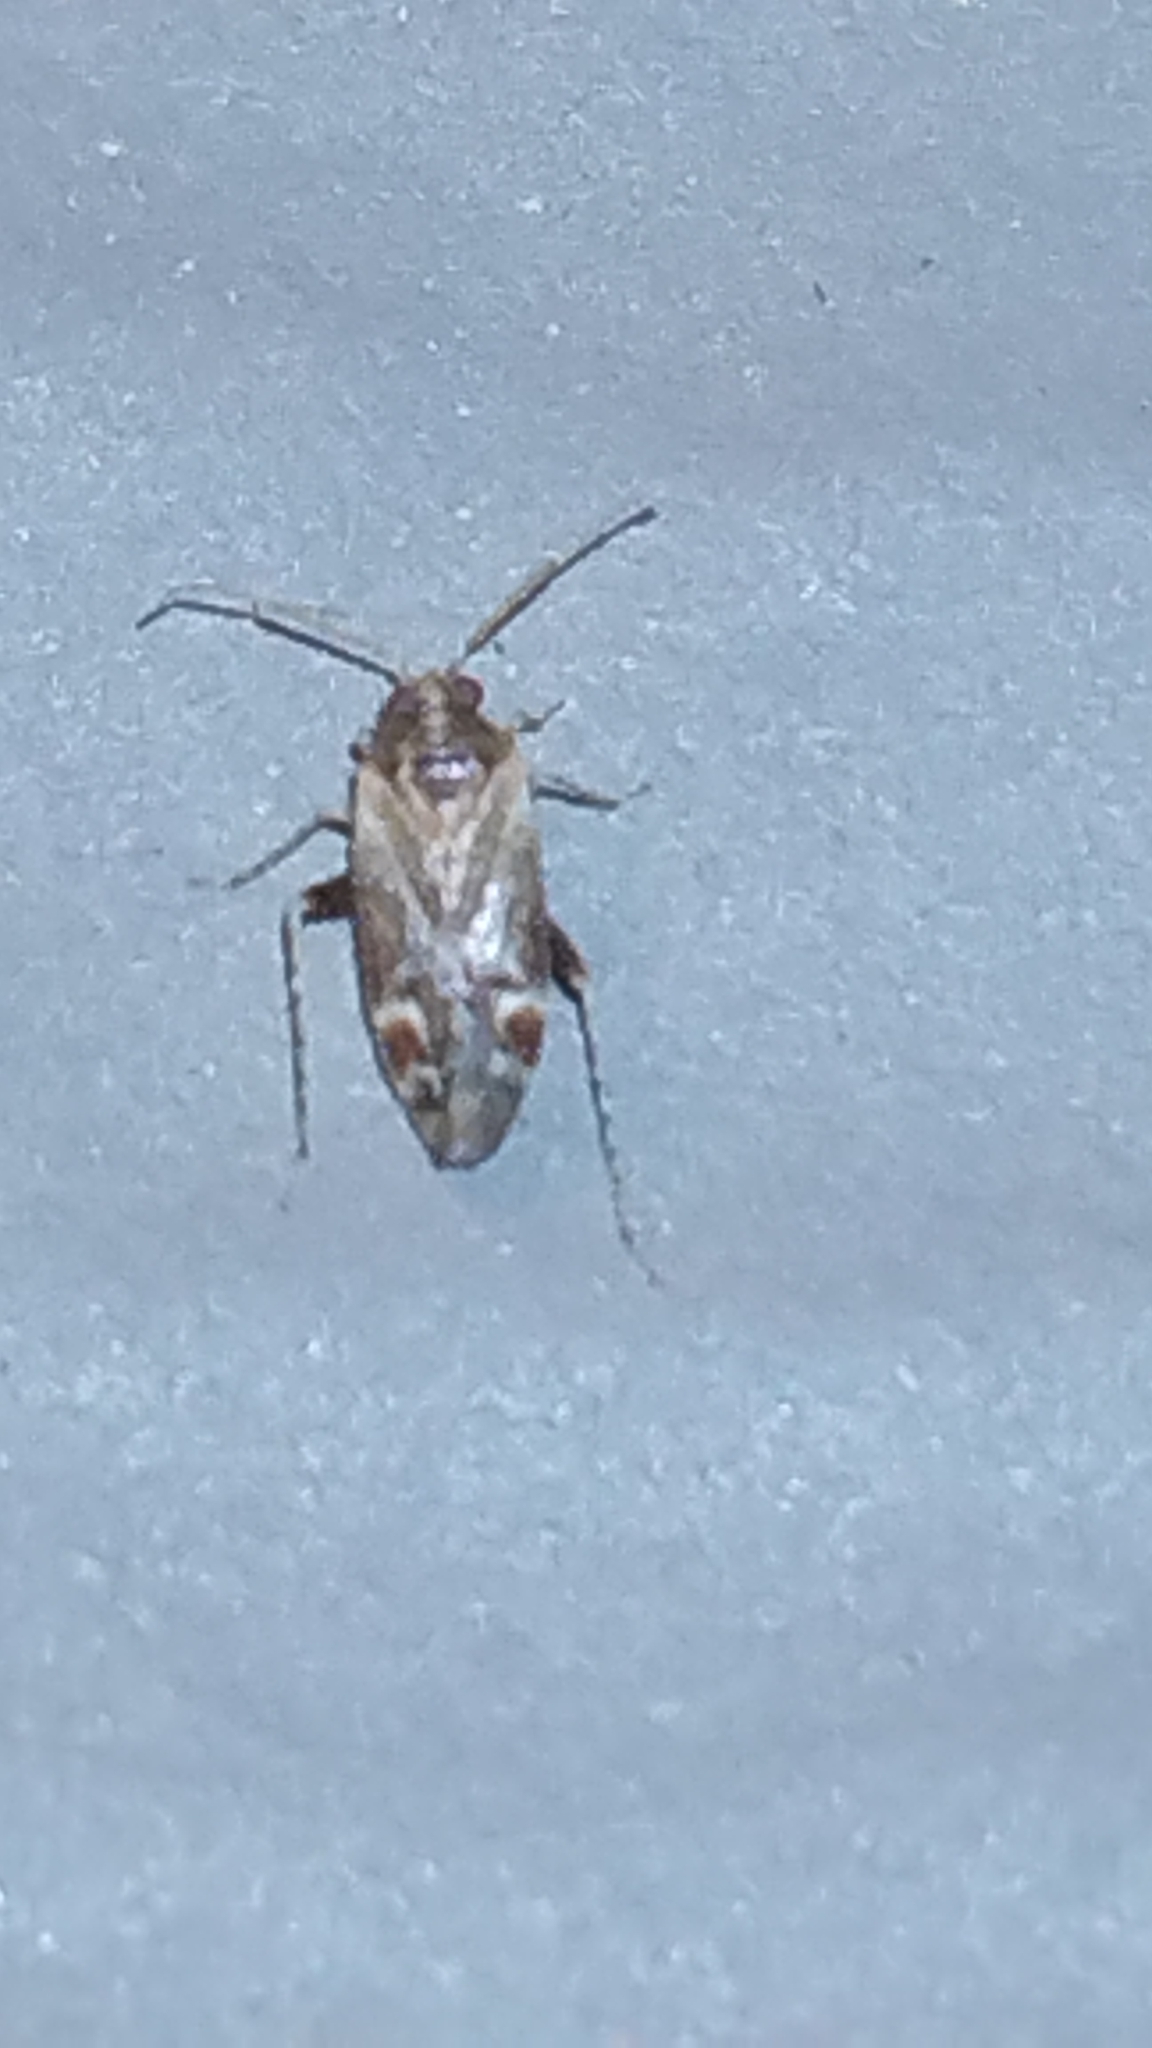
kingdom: Animalia
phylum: Arthropoda
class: Insecta
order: Hemiptera
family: Miridae
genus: Hamatophylus
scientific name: Hamatophylus guttulosus
